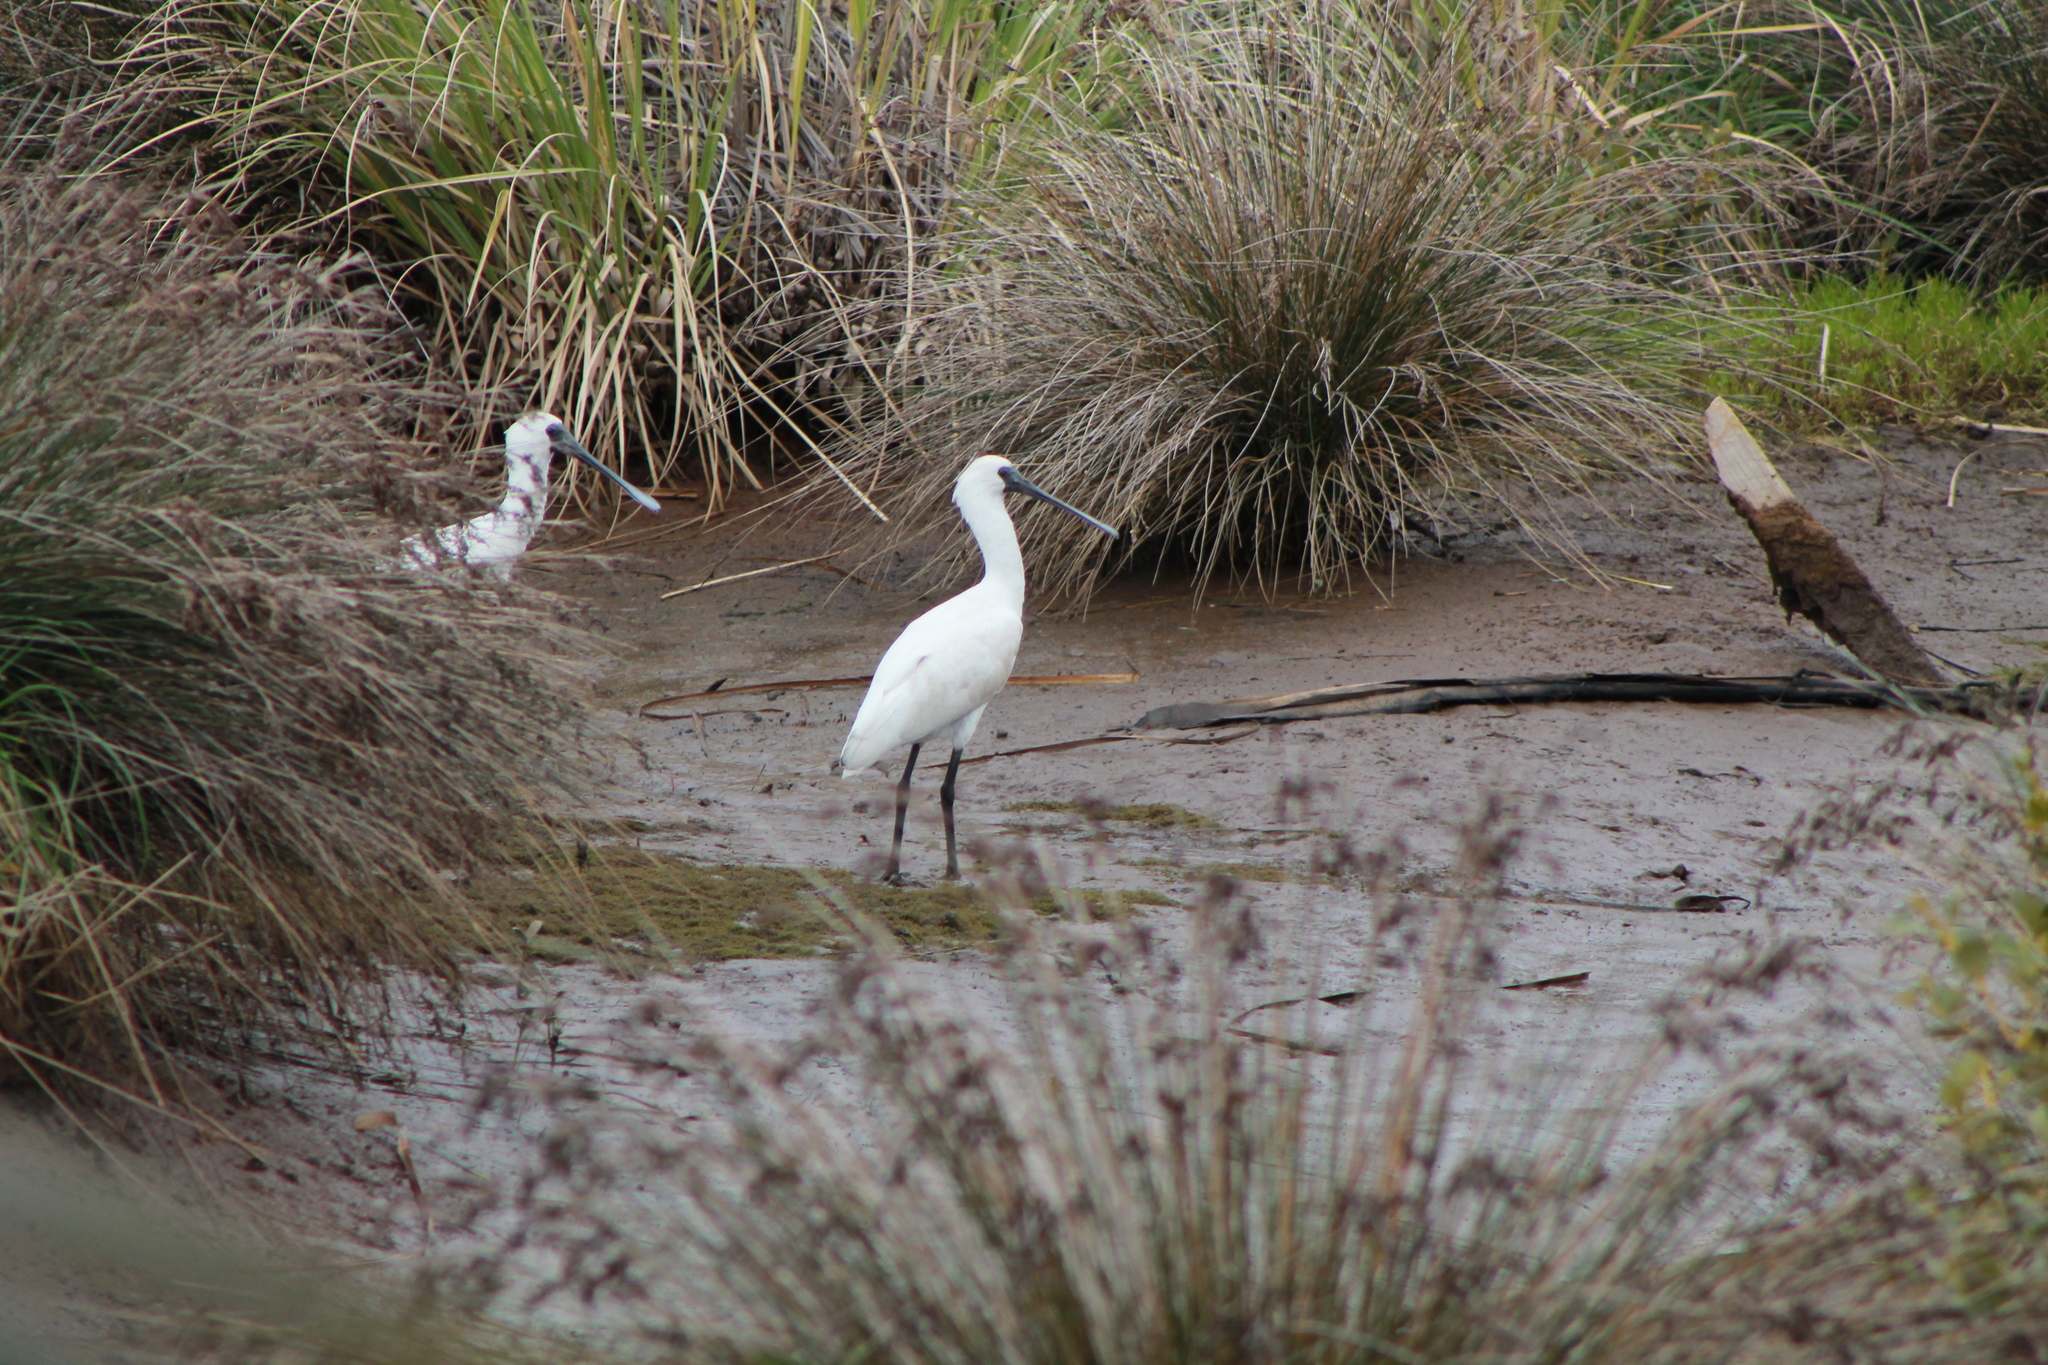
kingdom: Animalia
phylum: Chordata
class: Aves
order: Pelecaniformes
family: Threskiornithidae
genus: Platalea
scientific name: Platalea regia
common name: Royal spoonbill
